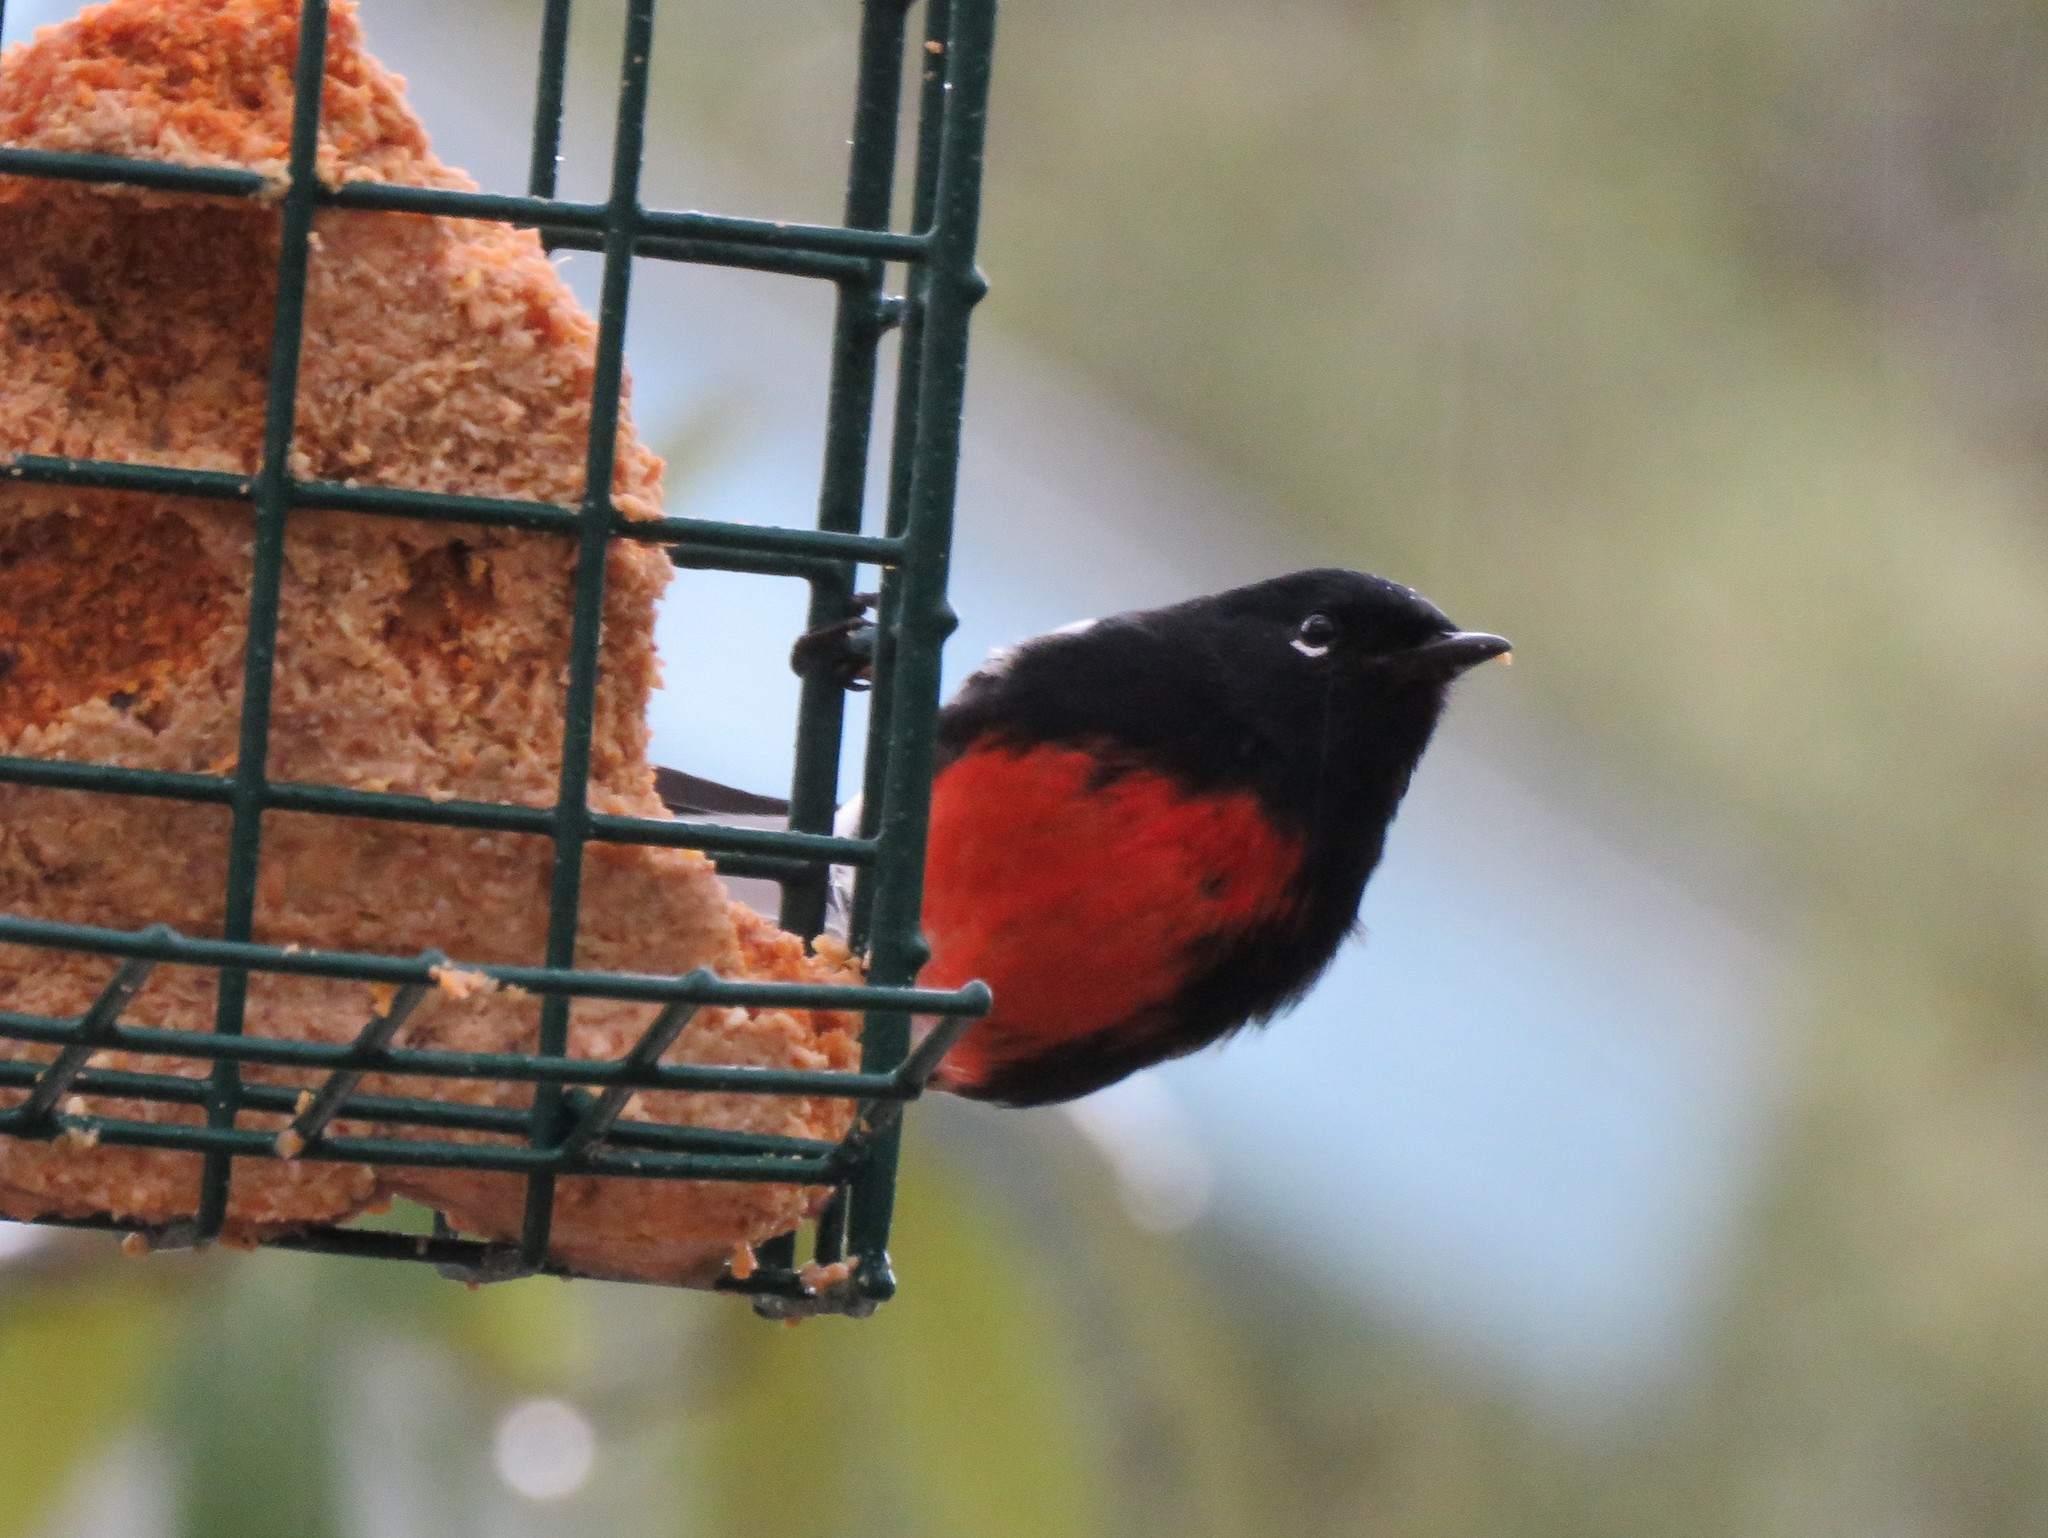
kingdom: Animalia
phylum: Chordata
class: Aves
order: Passeriformes
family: Parulidae
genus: Myioborus
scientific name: Myioborus pictus
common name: Painted whitestart
